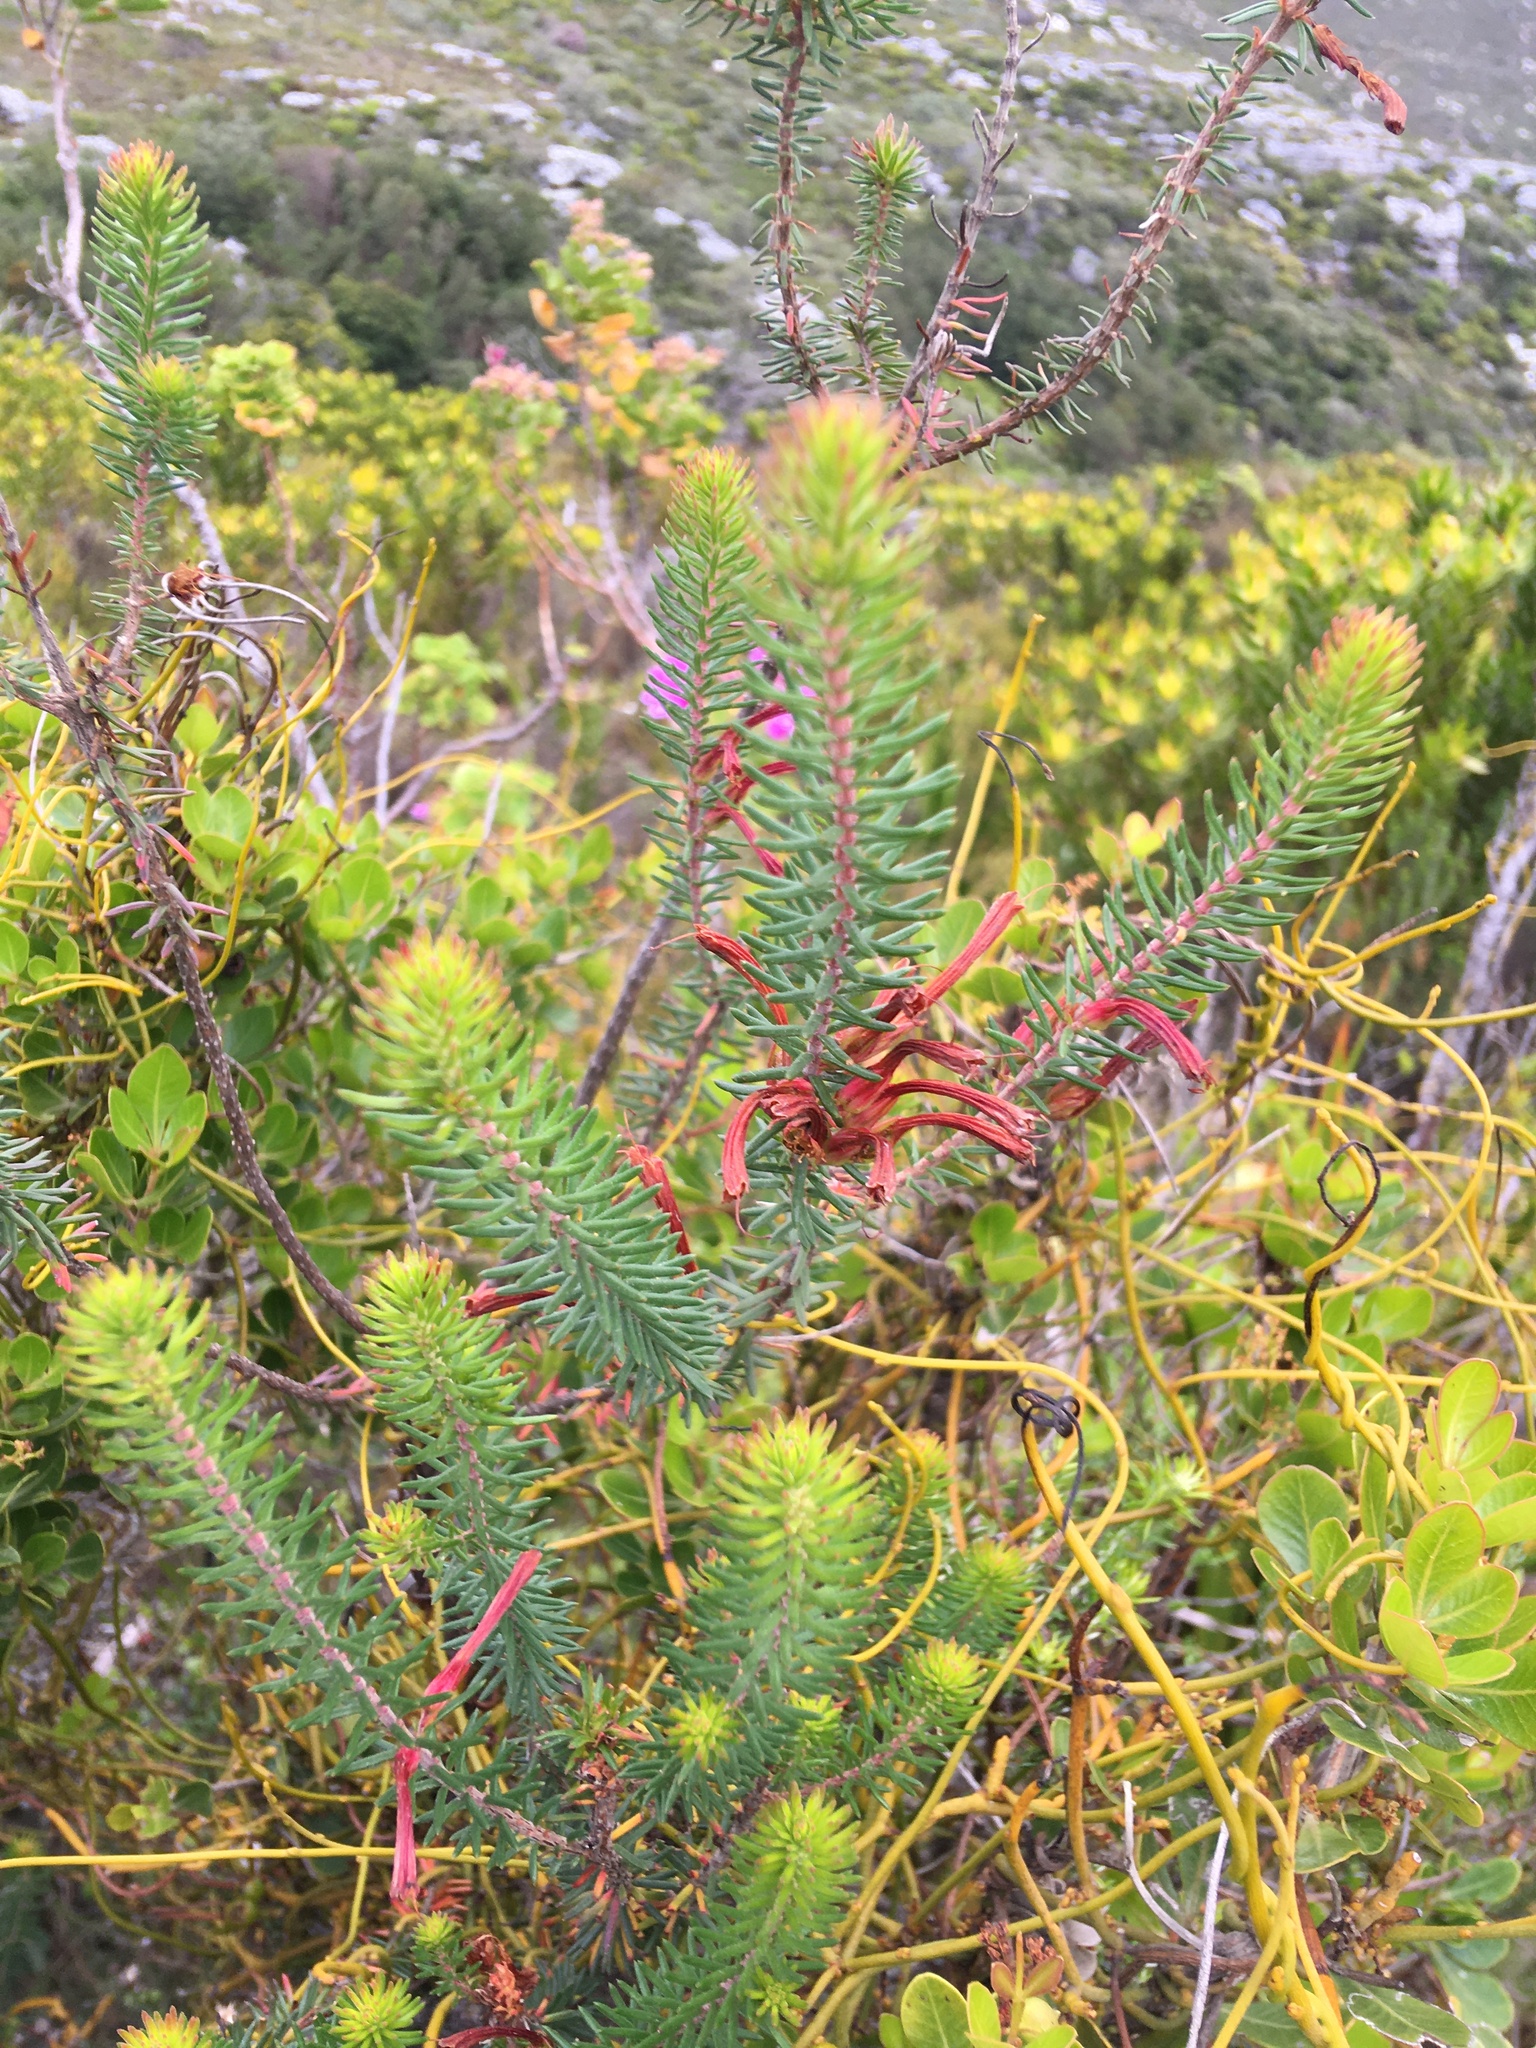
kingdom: Plantae
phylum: Tracheophyta
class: Magnoliopsida
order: Ericales
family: Ericaceae
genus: Erica
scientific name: Erica abietina
